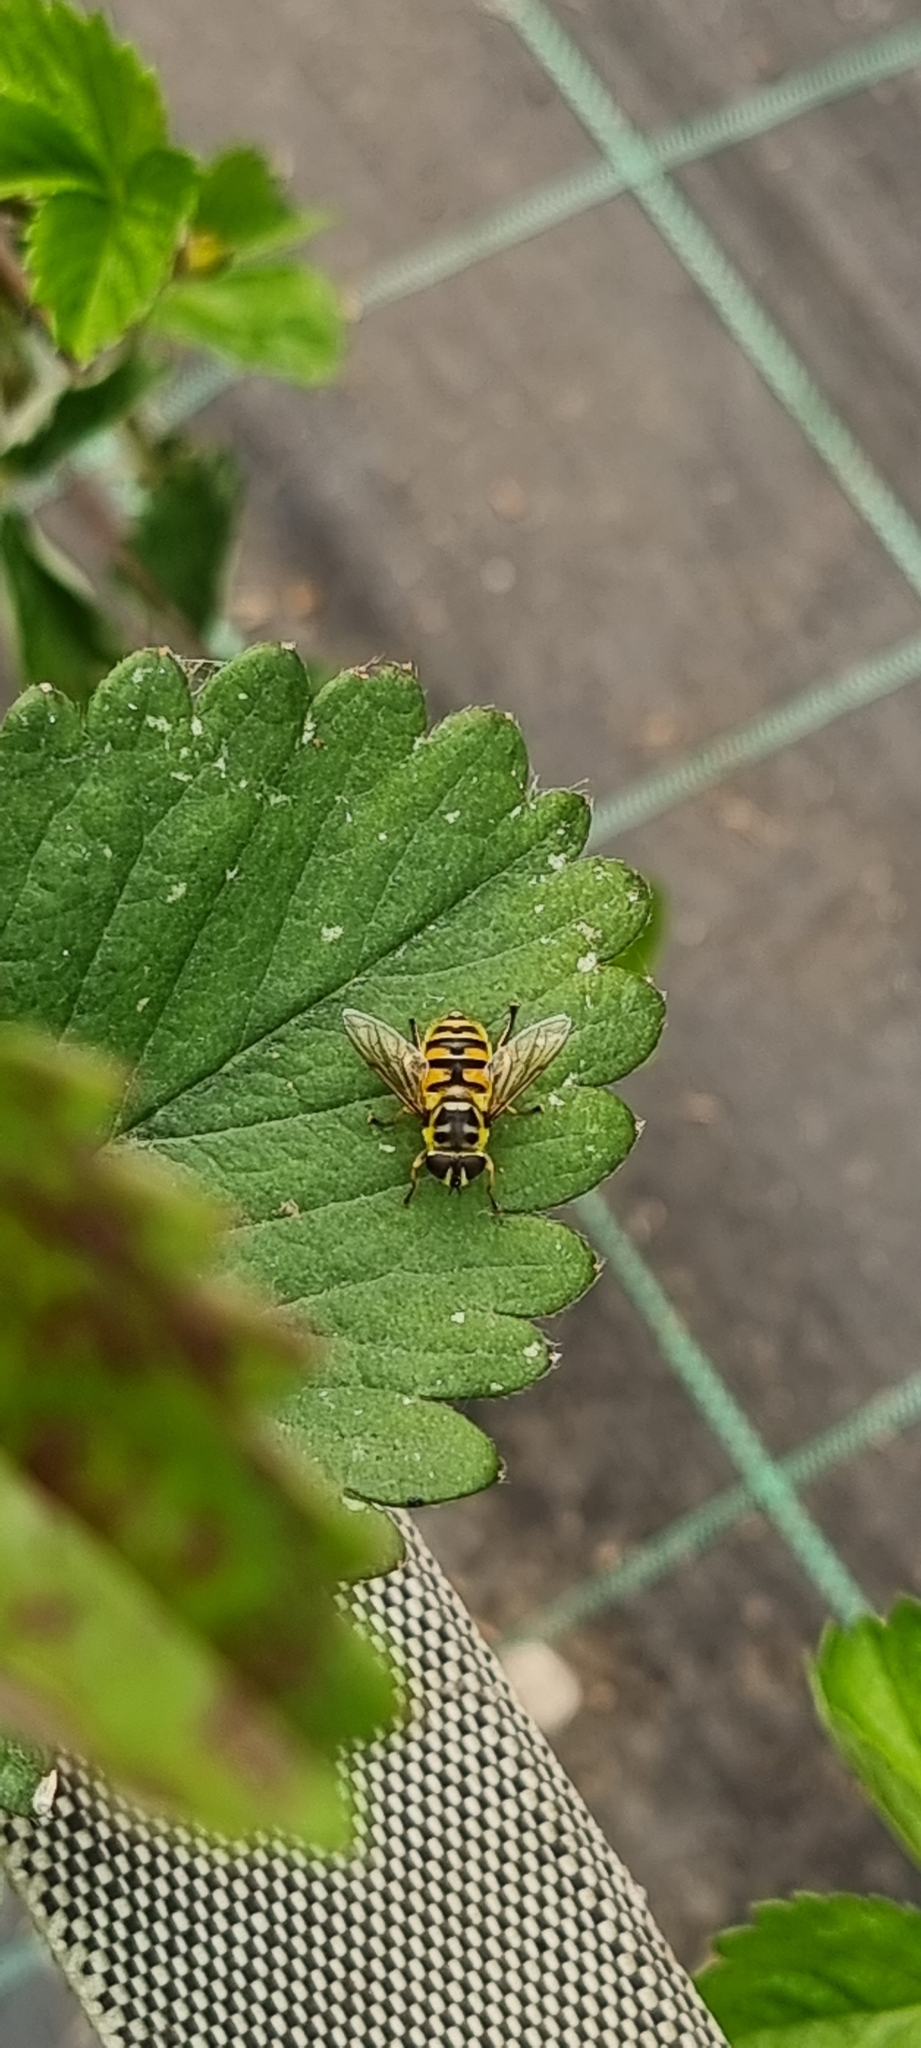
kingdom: Animalia
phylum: Arthropoda
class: Insecta
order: Diptera
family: Syrphidae
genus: Myathropa
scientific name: Myathropa florea
